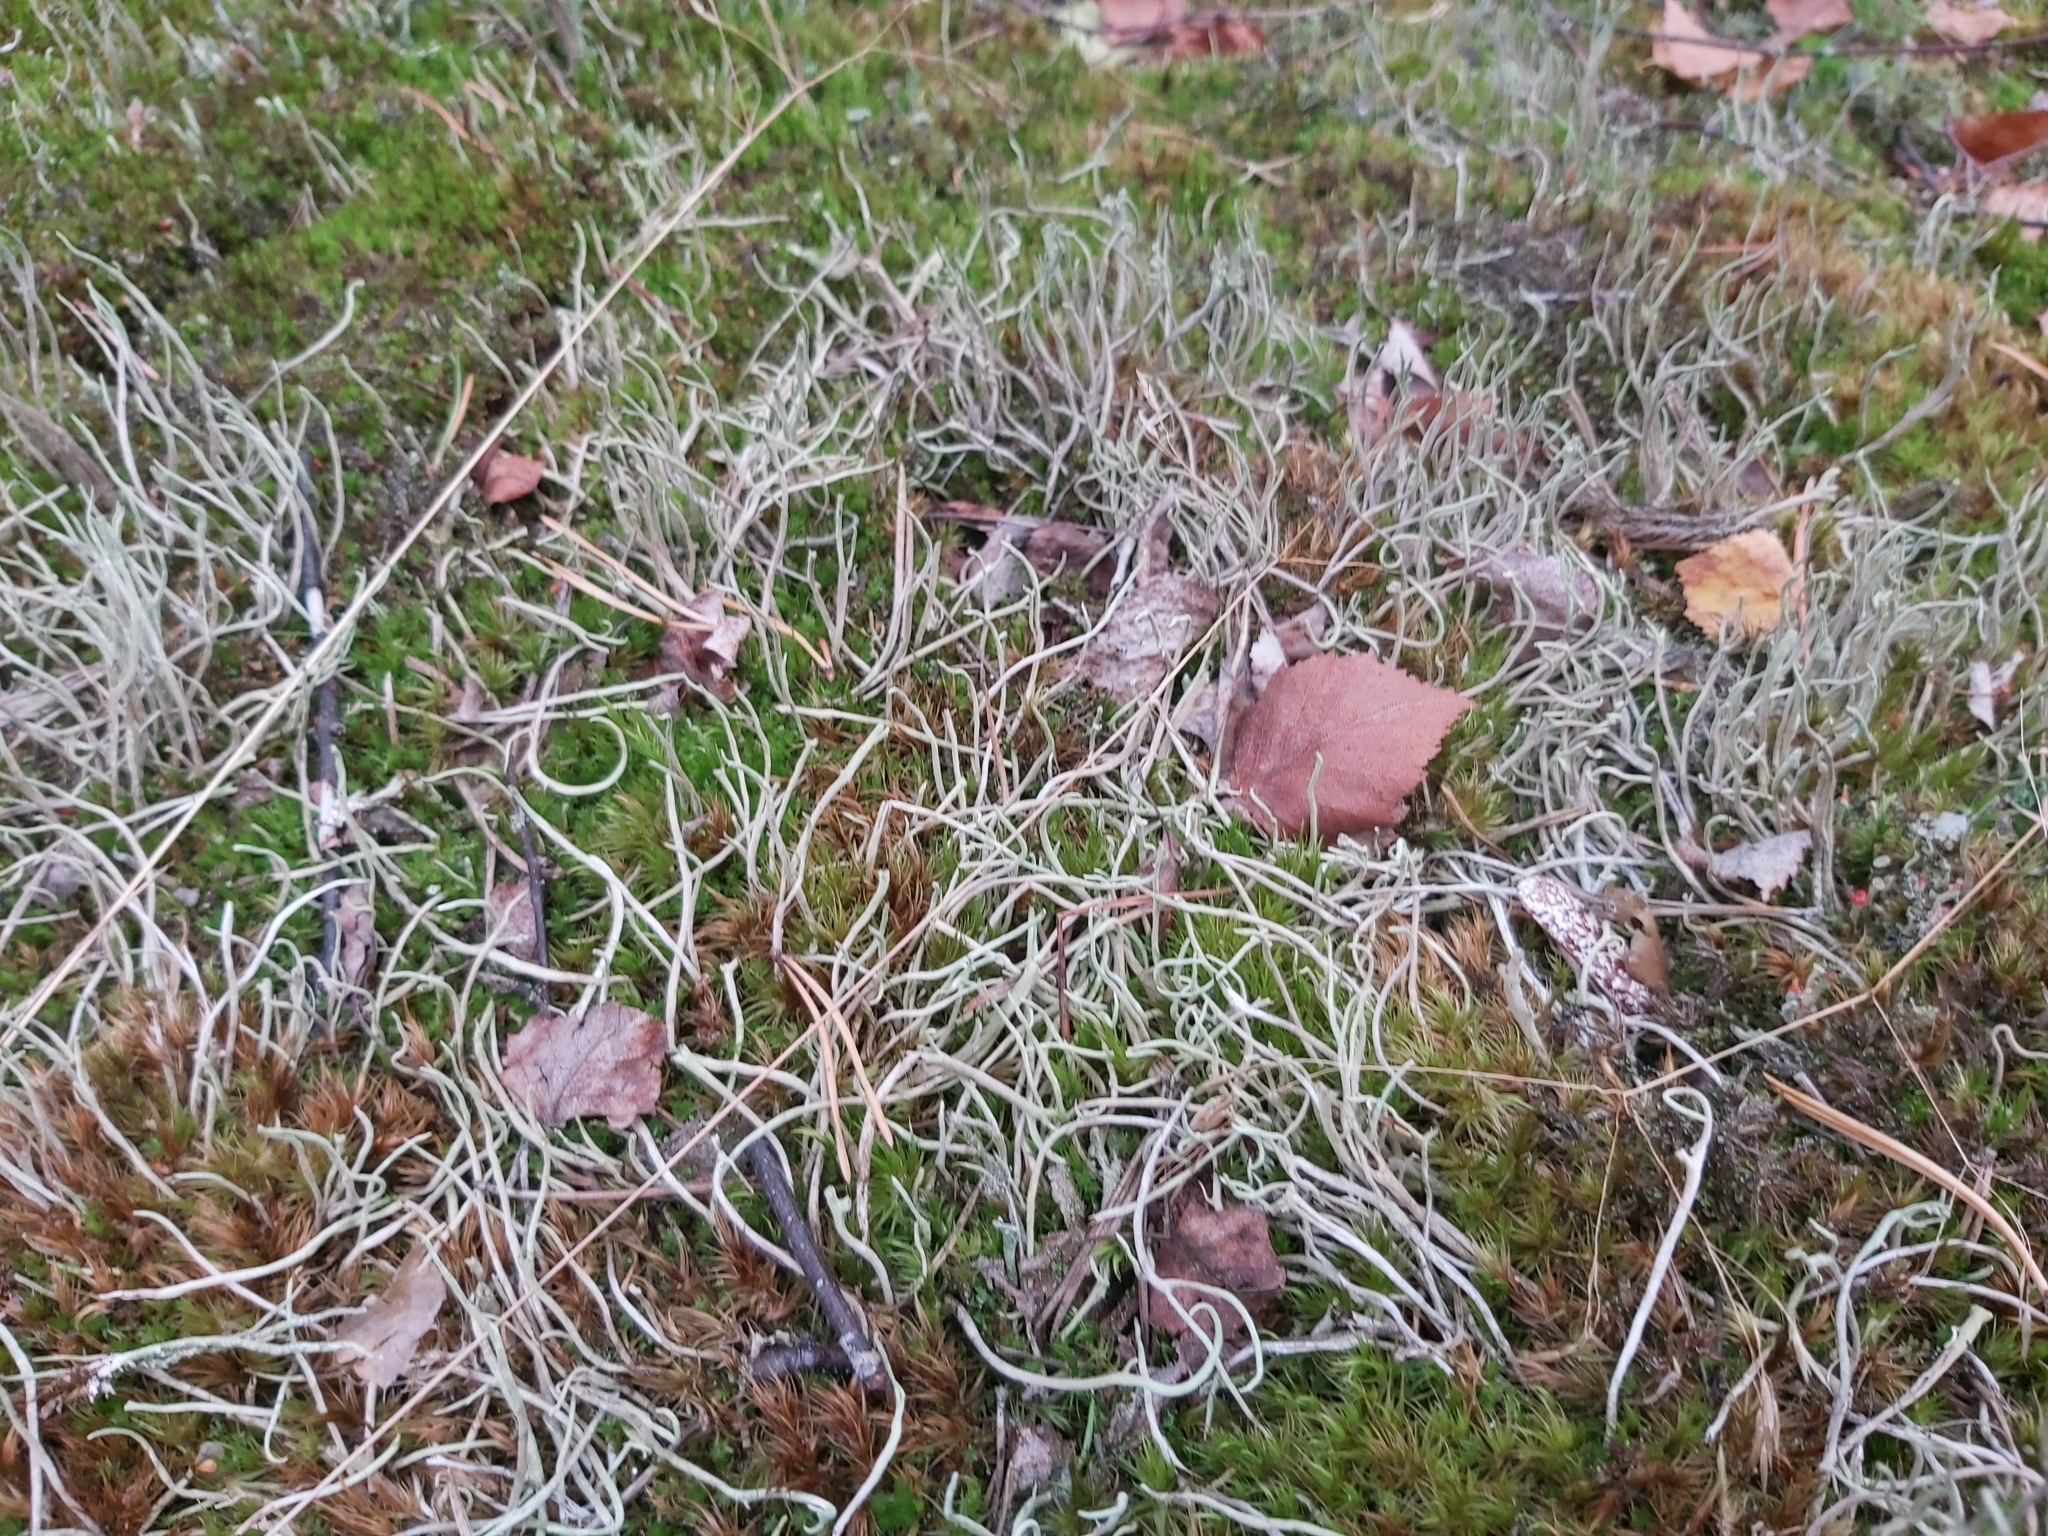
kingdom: Fungi
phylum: Ascomycota
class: Lecanoromycetes
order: Lecanorales
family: Cladoniaceae
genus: Cladonia
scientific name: Cladonia subulata
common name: Antlered powderhorn
